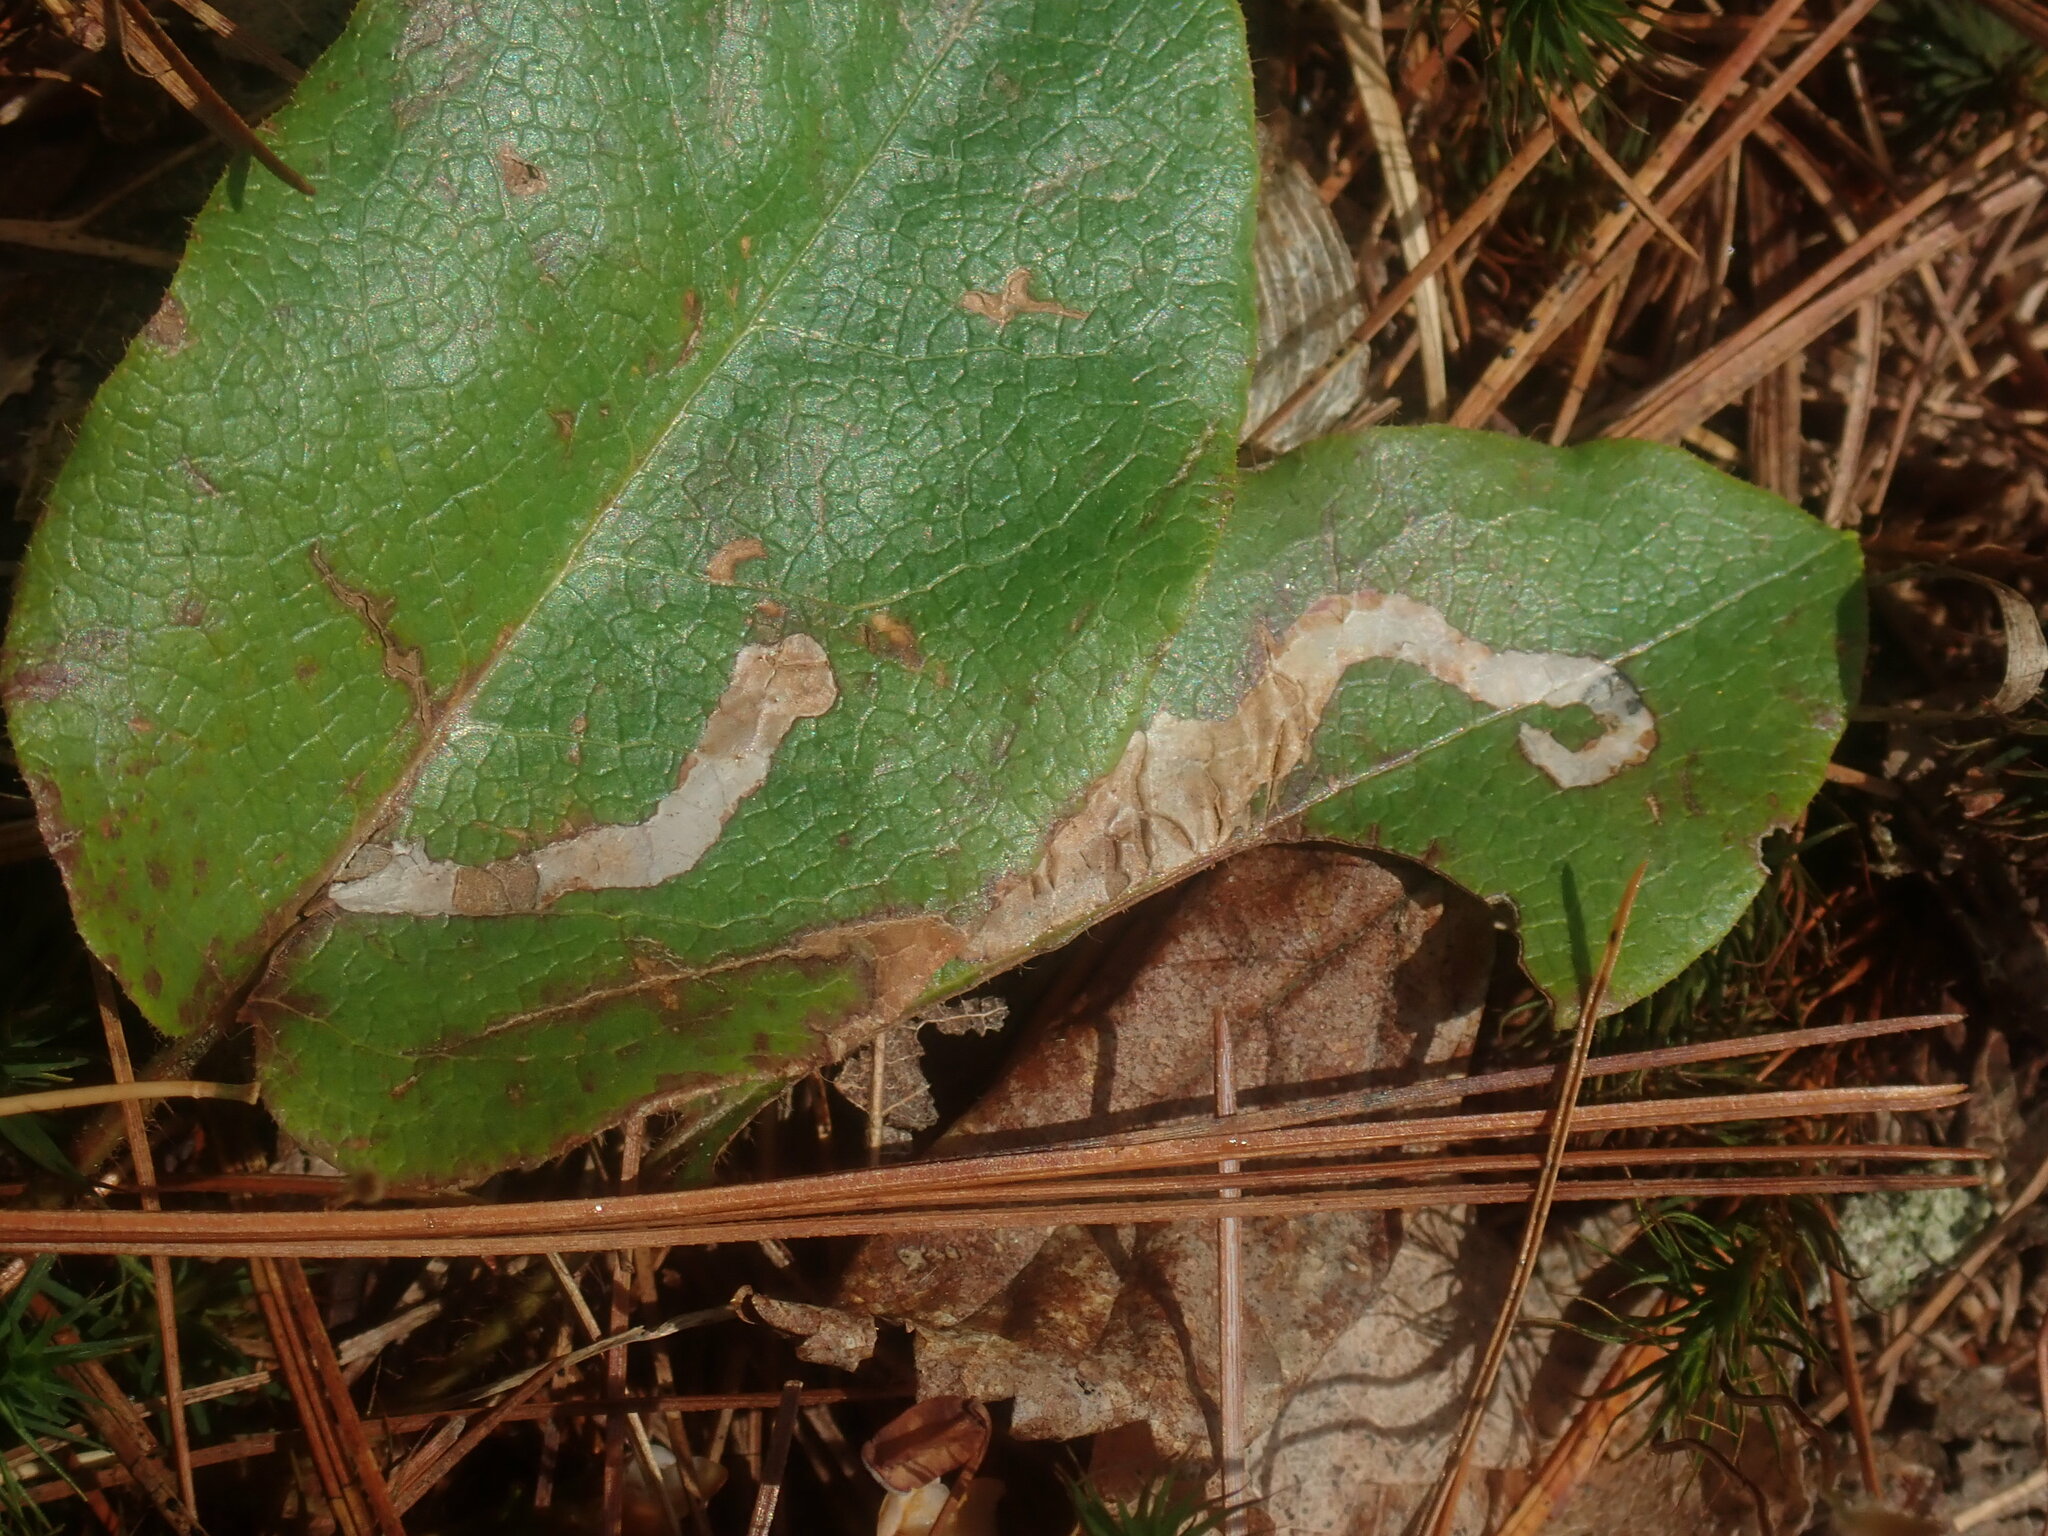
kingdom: Animalia
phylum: Arthropoda
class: Insecta
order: Coleoptera
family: Buprestidae
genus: Brachys
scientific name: Brachys
